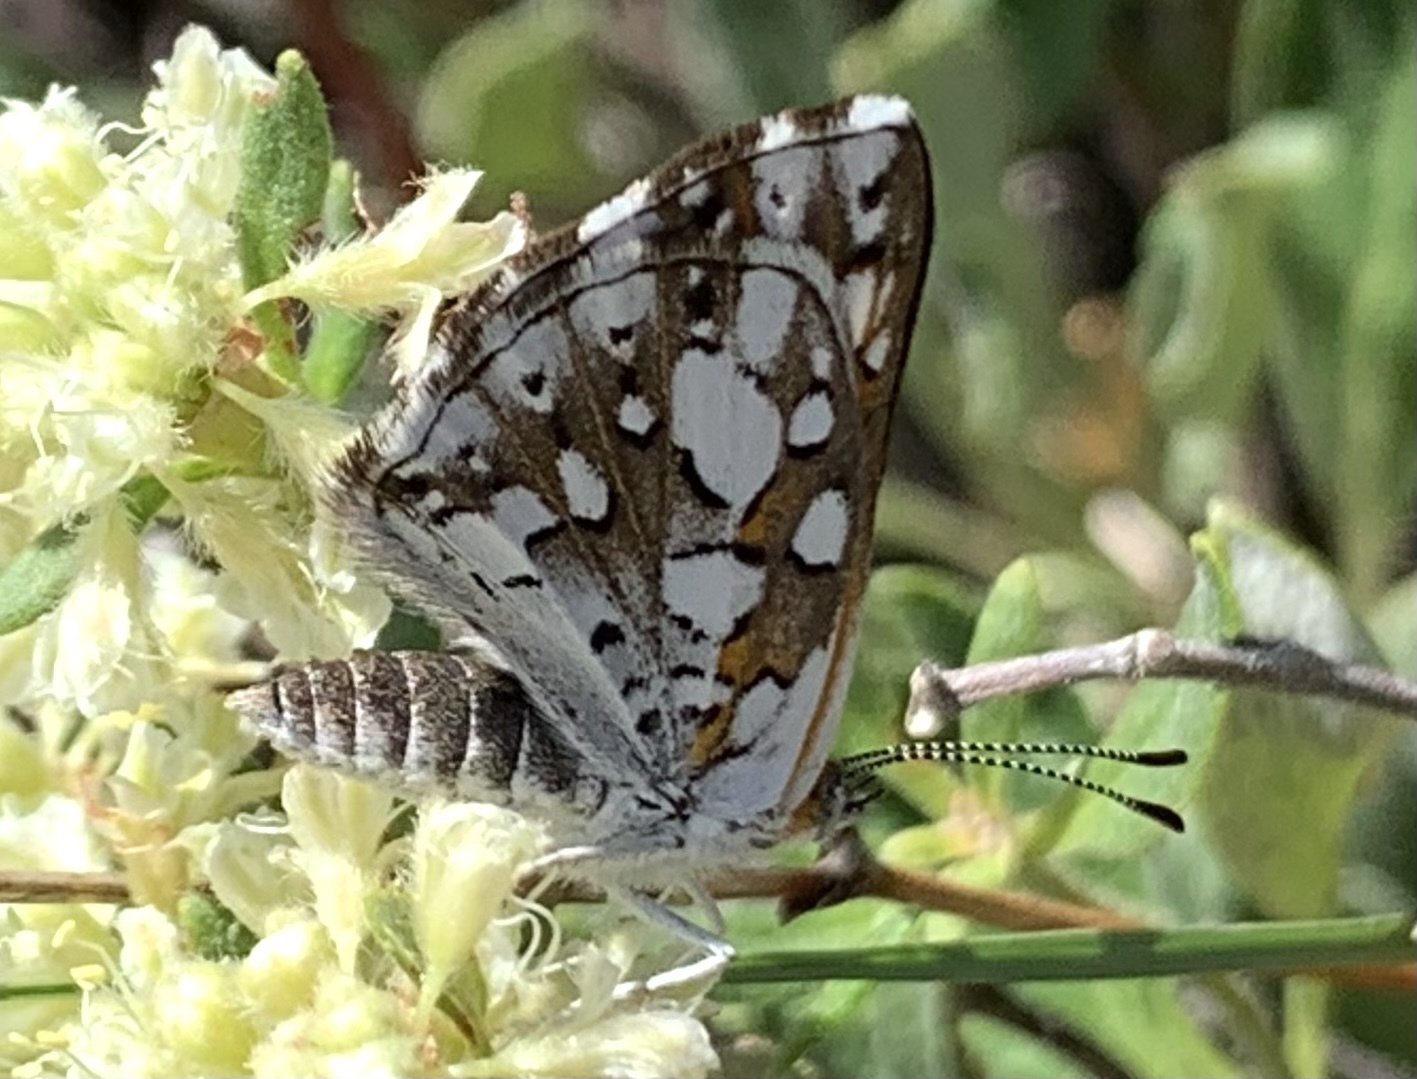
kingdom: Animalia
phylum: Arthropoda
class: Insecta
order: Lepidoptera
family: Riodinidae
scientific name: Riodinidae
